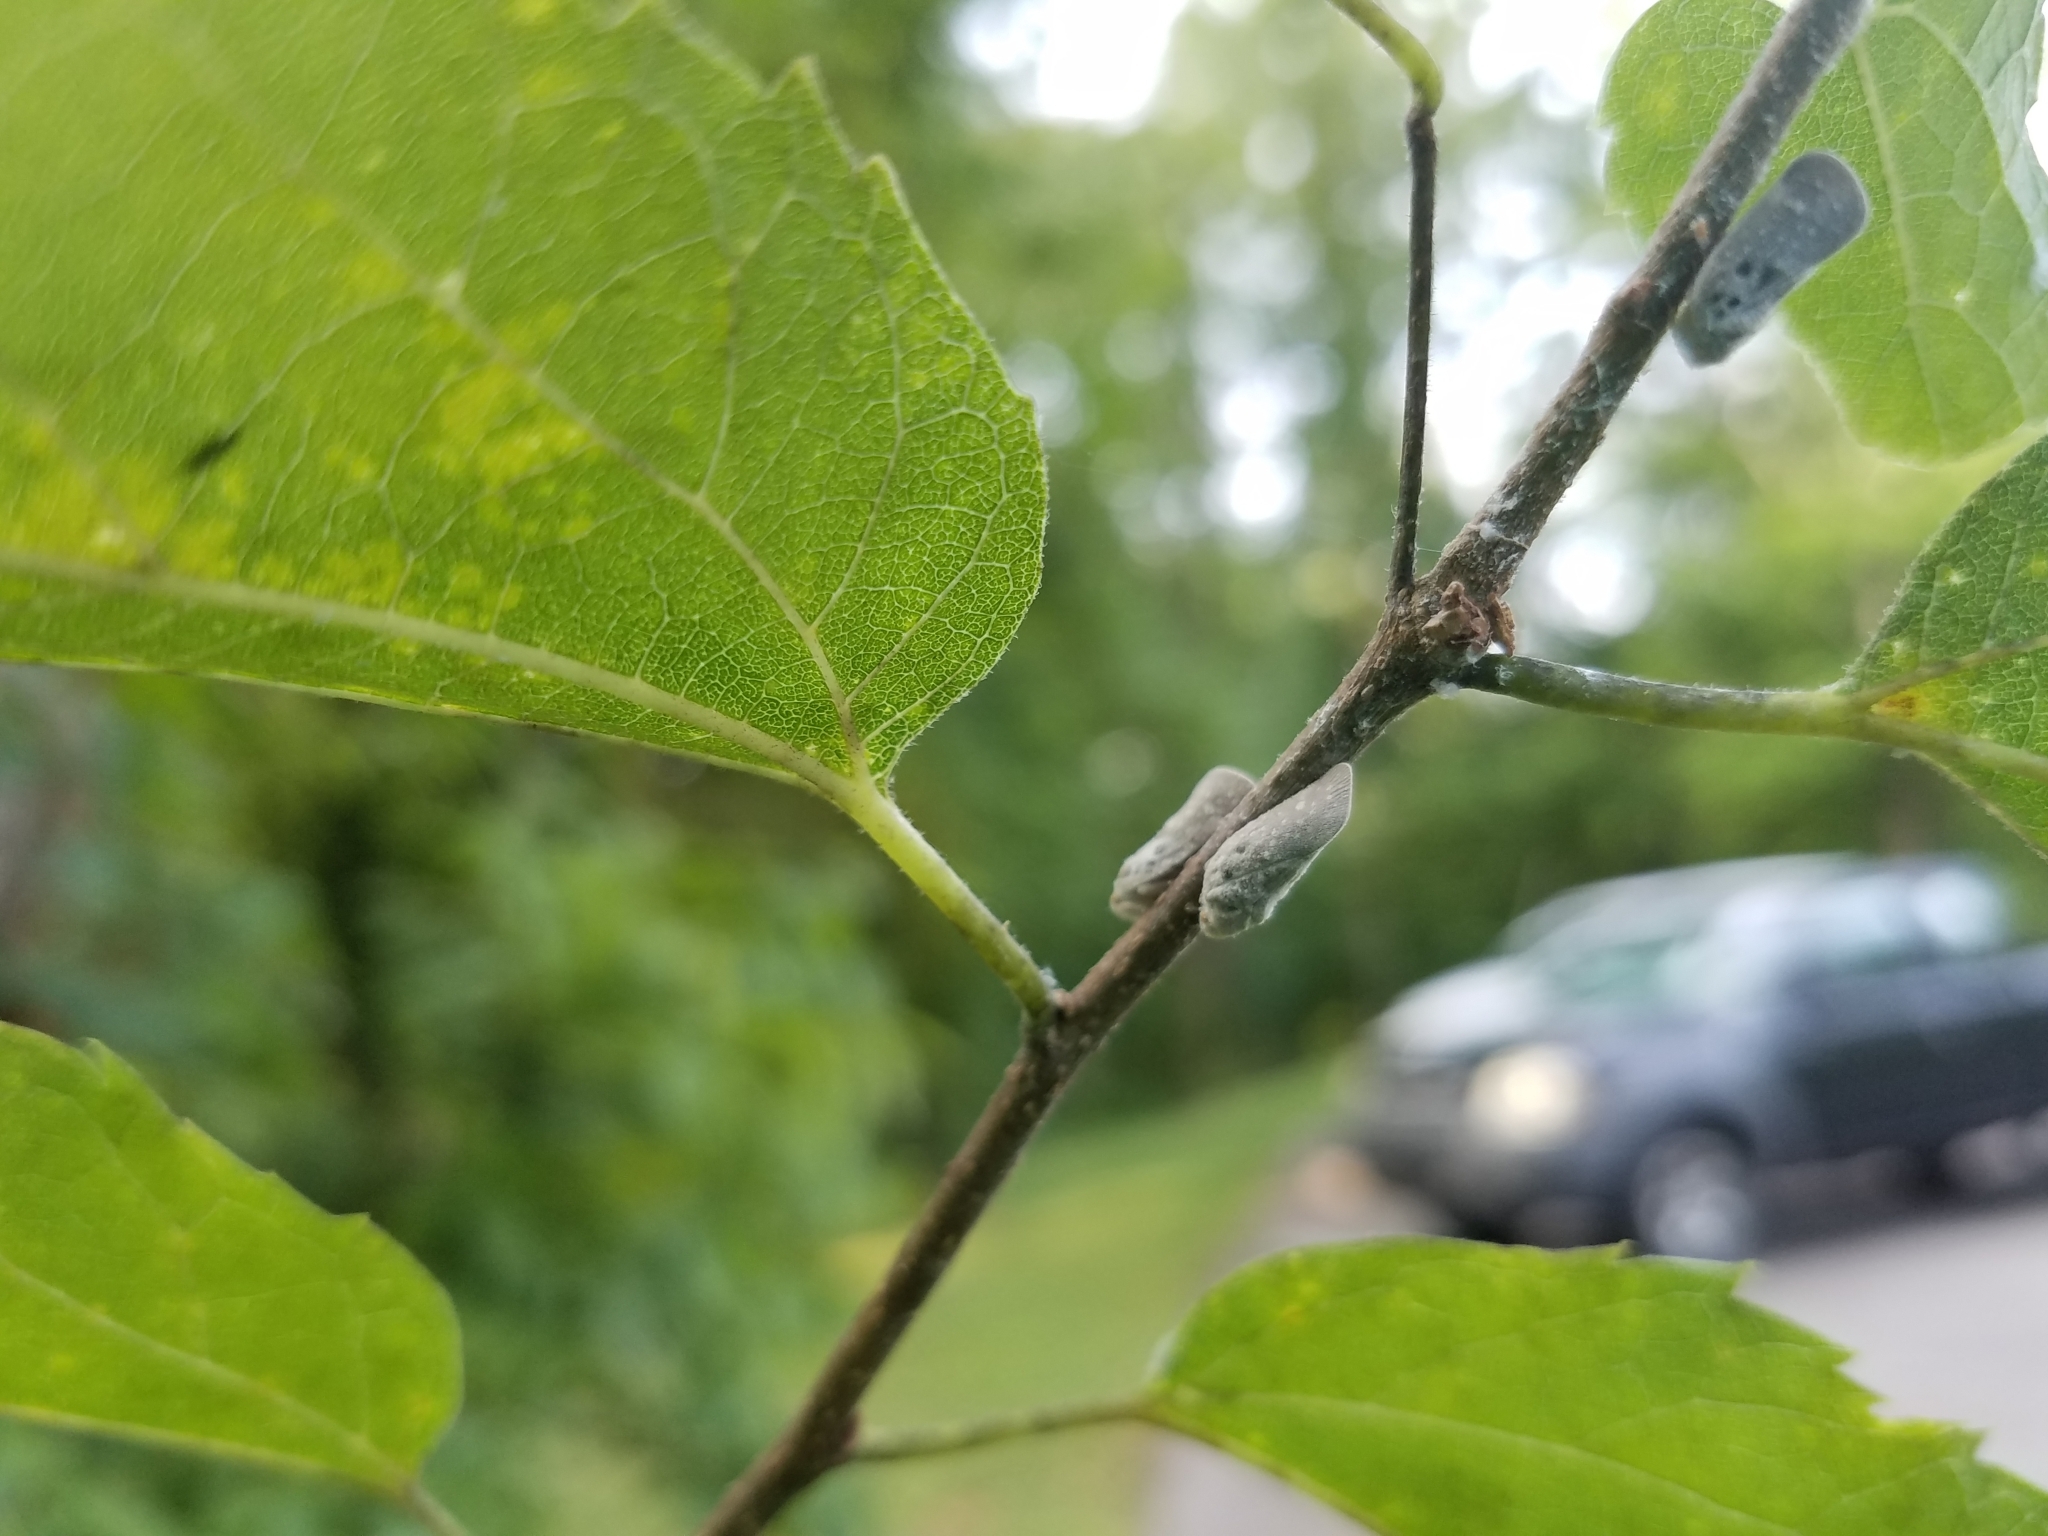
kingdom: Animalia
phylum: Arthropoda
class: Insecta
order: Hemiptera
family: Flatidae
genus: Metcalfa
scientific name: Metcalfa pruinosa
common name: Citrus flatid planthopper
